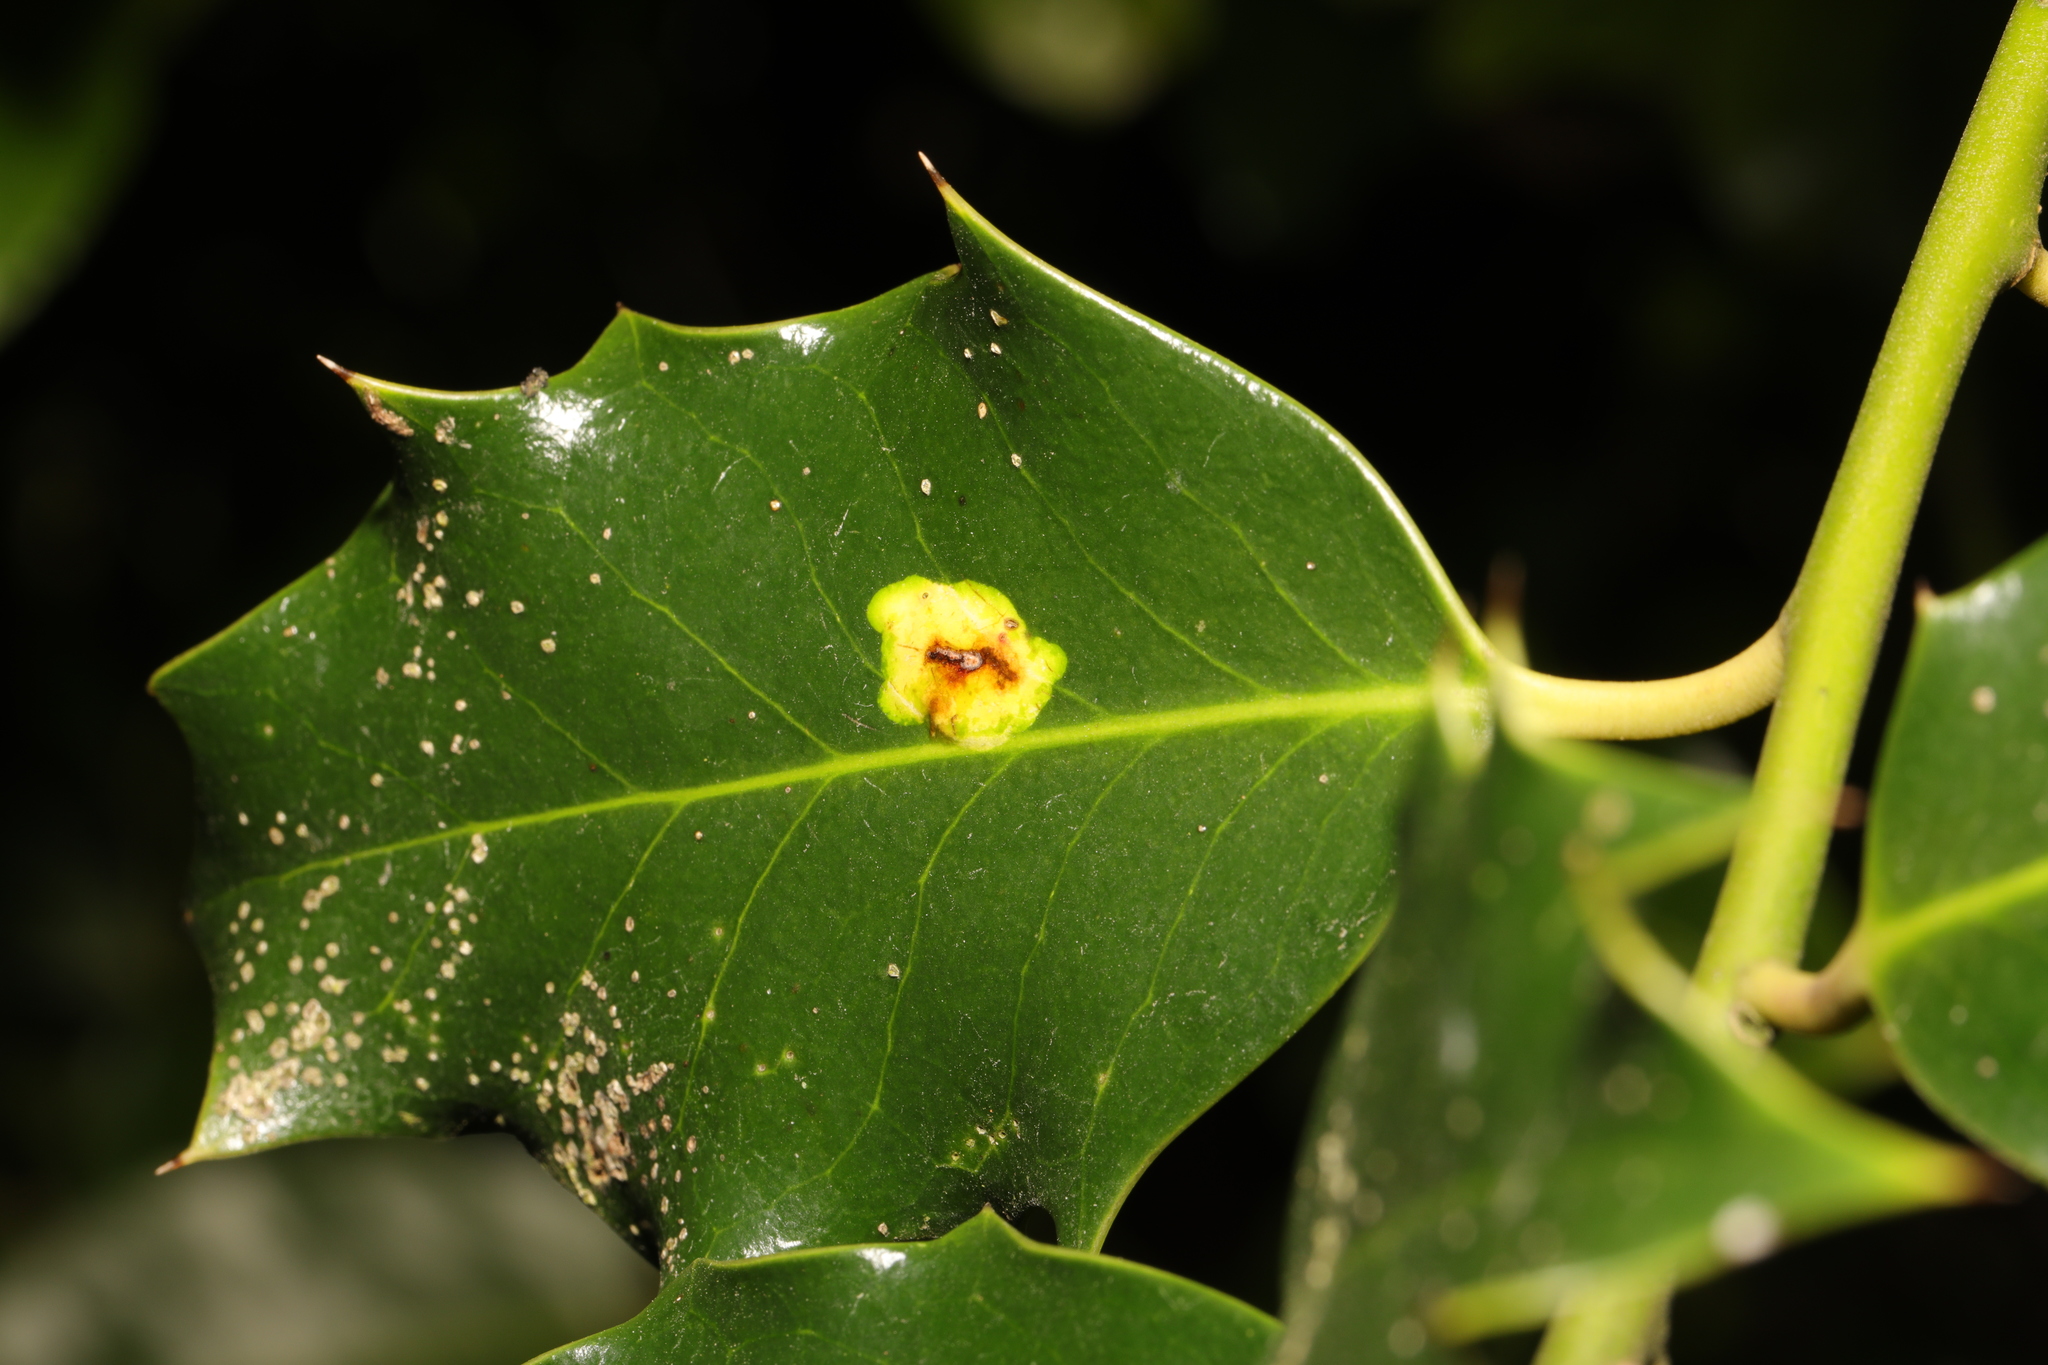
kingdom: Animalia
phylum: Arthropoda
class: Insecta
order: Diptera
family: Agromyzidae
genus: Phytomyza
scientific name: Phytomyza ilicis
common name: Holly leafminer
